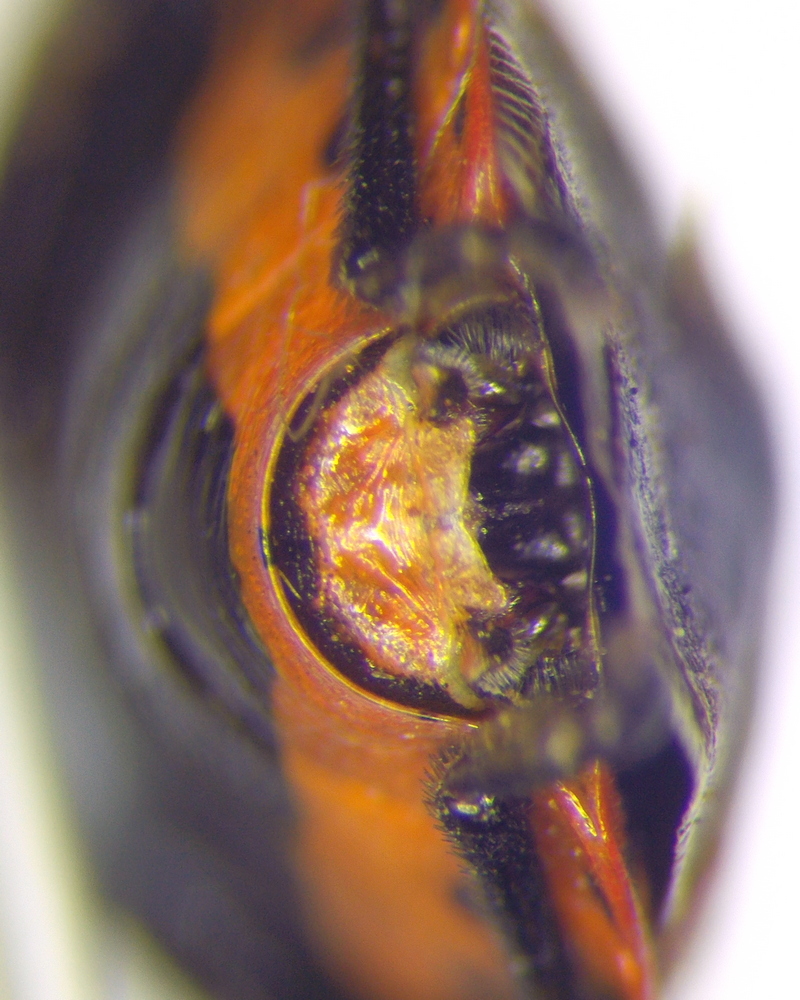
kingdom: Animalia
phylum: Arthropoda
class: Insecta
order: Hemiptera
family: Pentatomidae
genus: Eurydema
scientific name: Eurydema ornata
